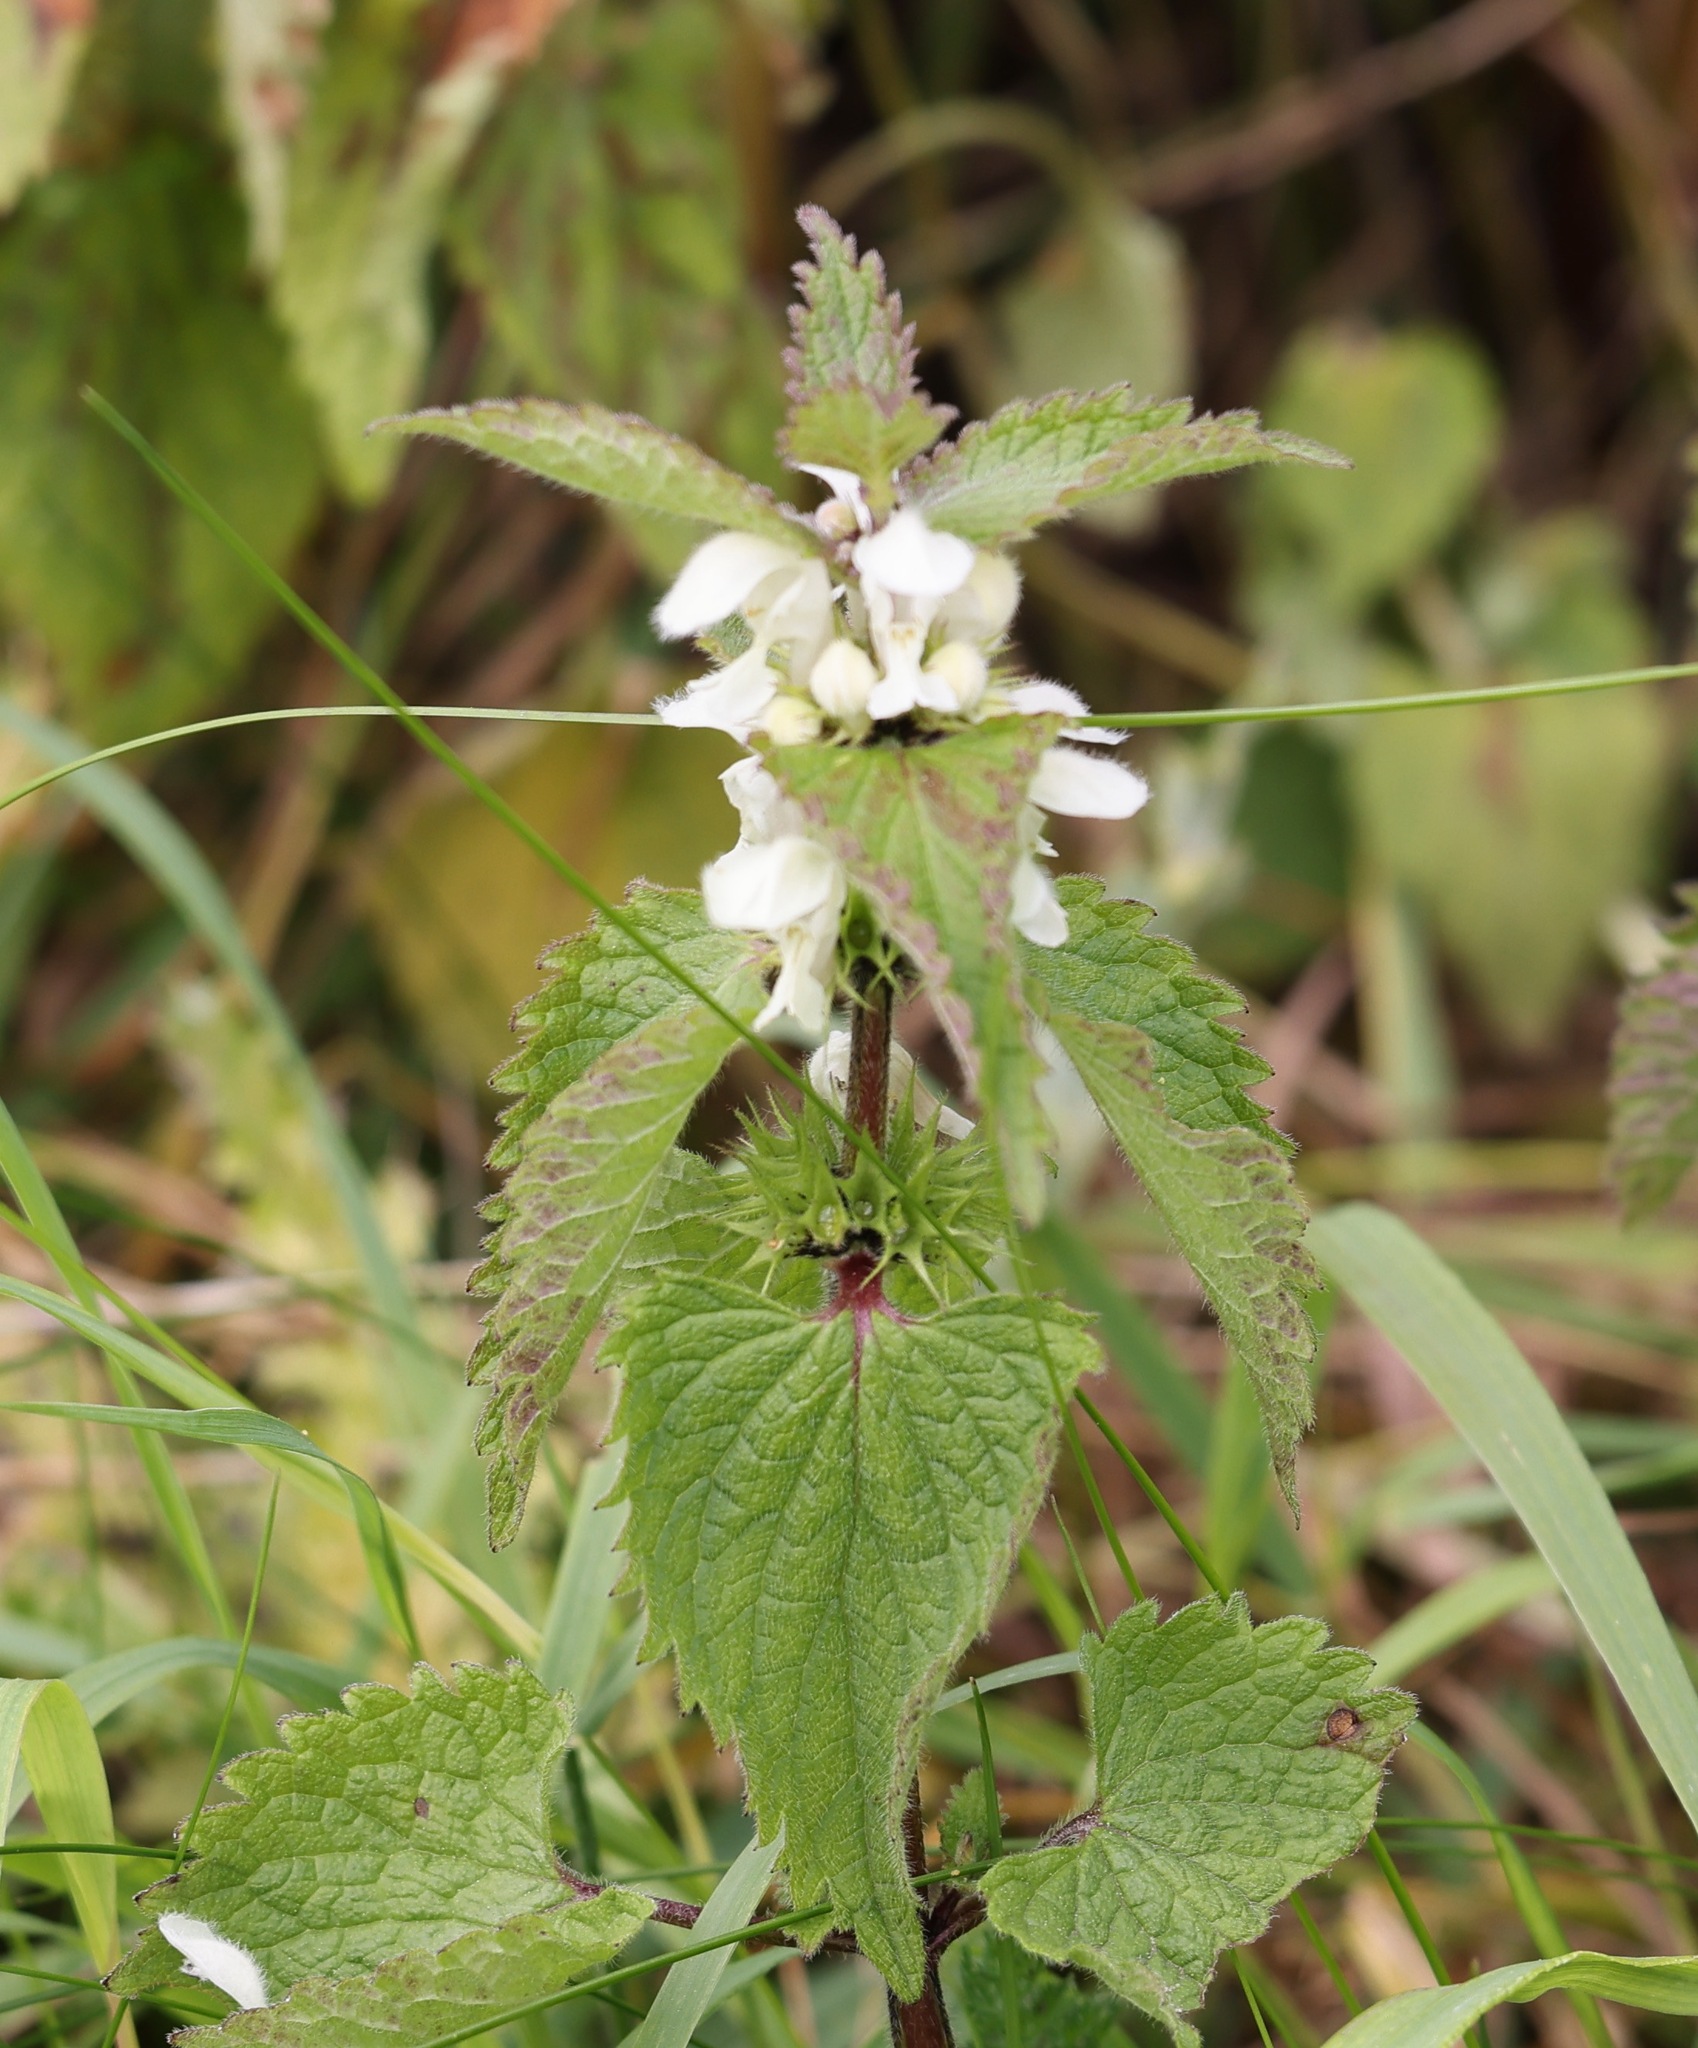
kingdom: Plantae
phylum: Tracheophyta
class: Magnoliopsida
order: Lamiales
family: Lamiaceae
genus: Lamium
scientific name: Lamium album
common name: White dead-nettle
